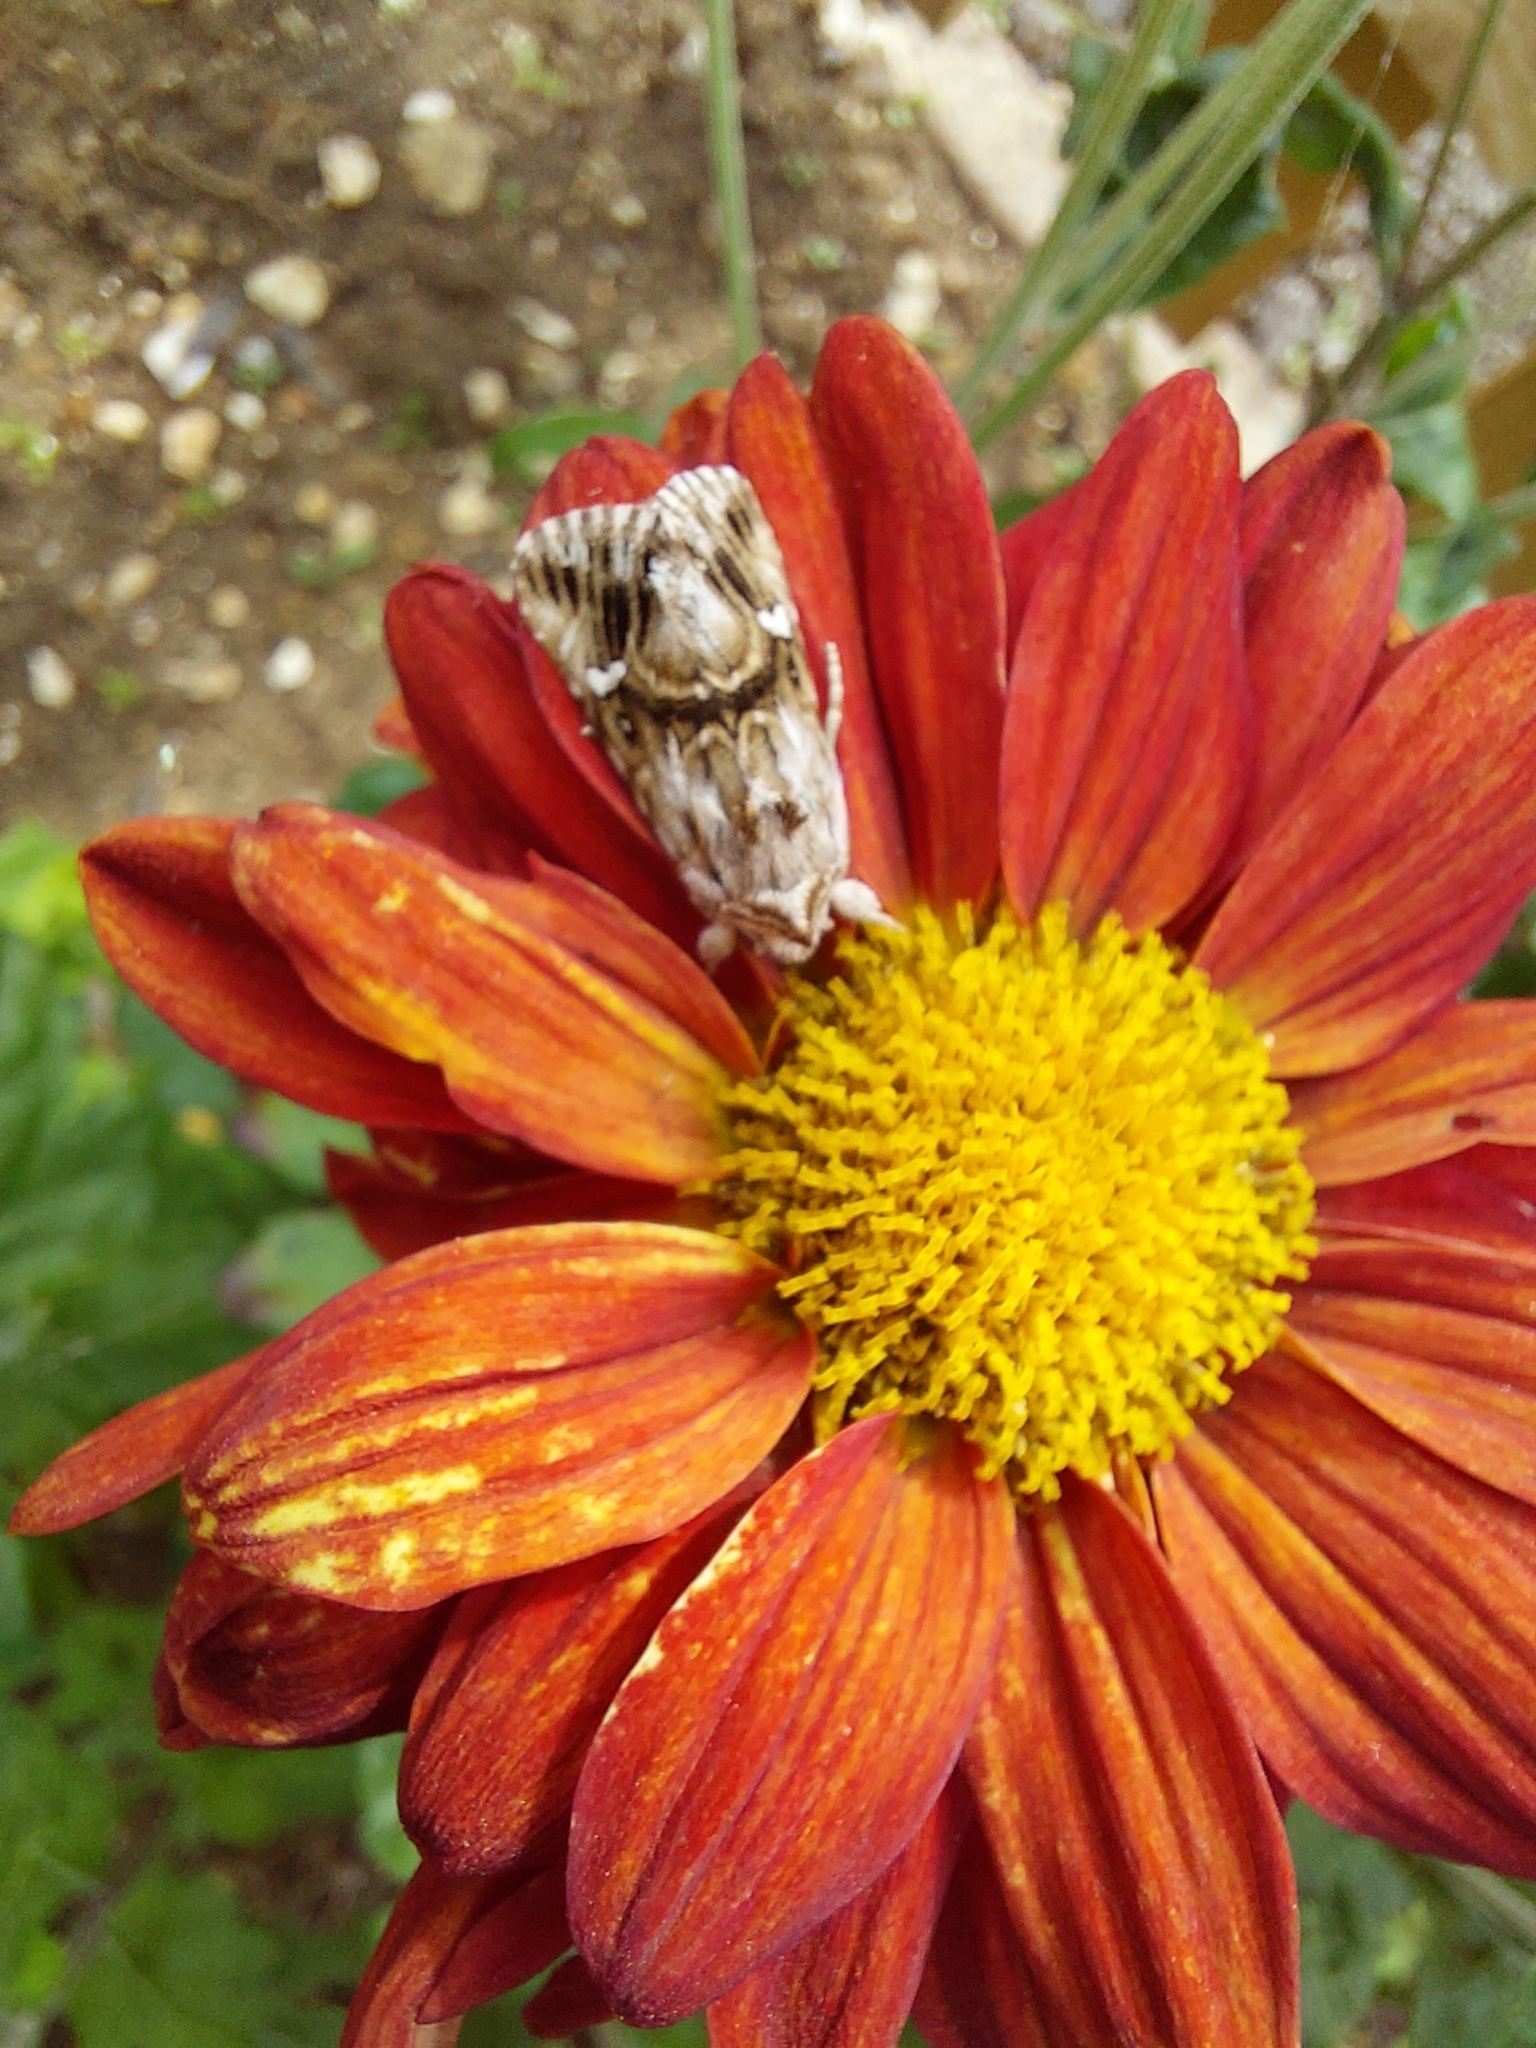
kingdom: Animalia
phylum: Arthropoda
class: Insecta
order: Lepidoptera
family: Noctuidae
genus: Calophasia
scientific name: Calophasia lunula
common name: Toadflax brocade
